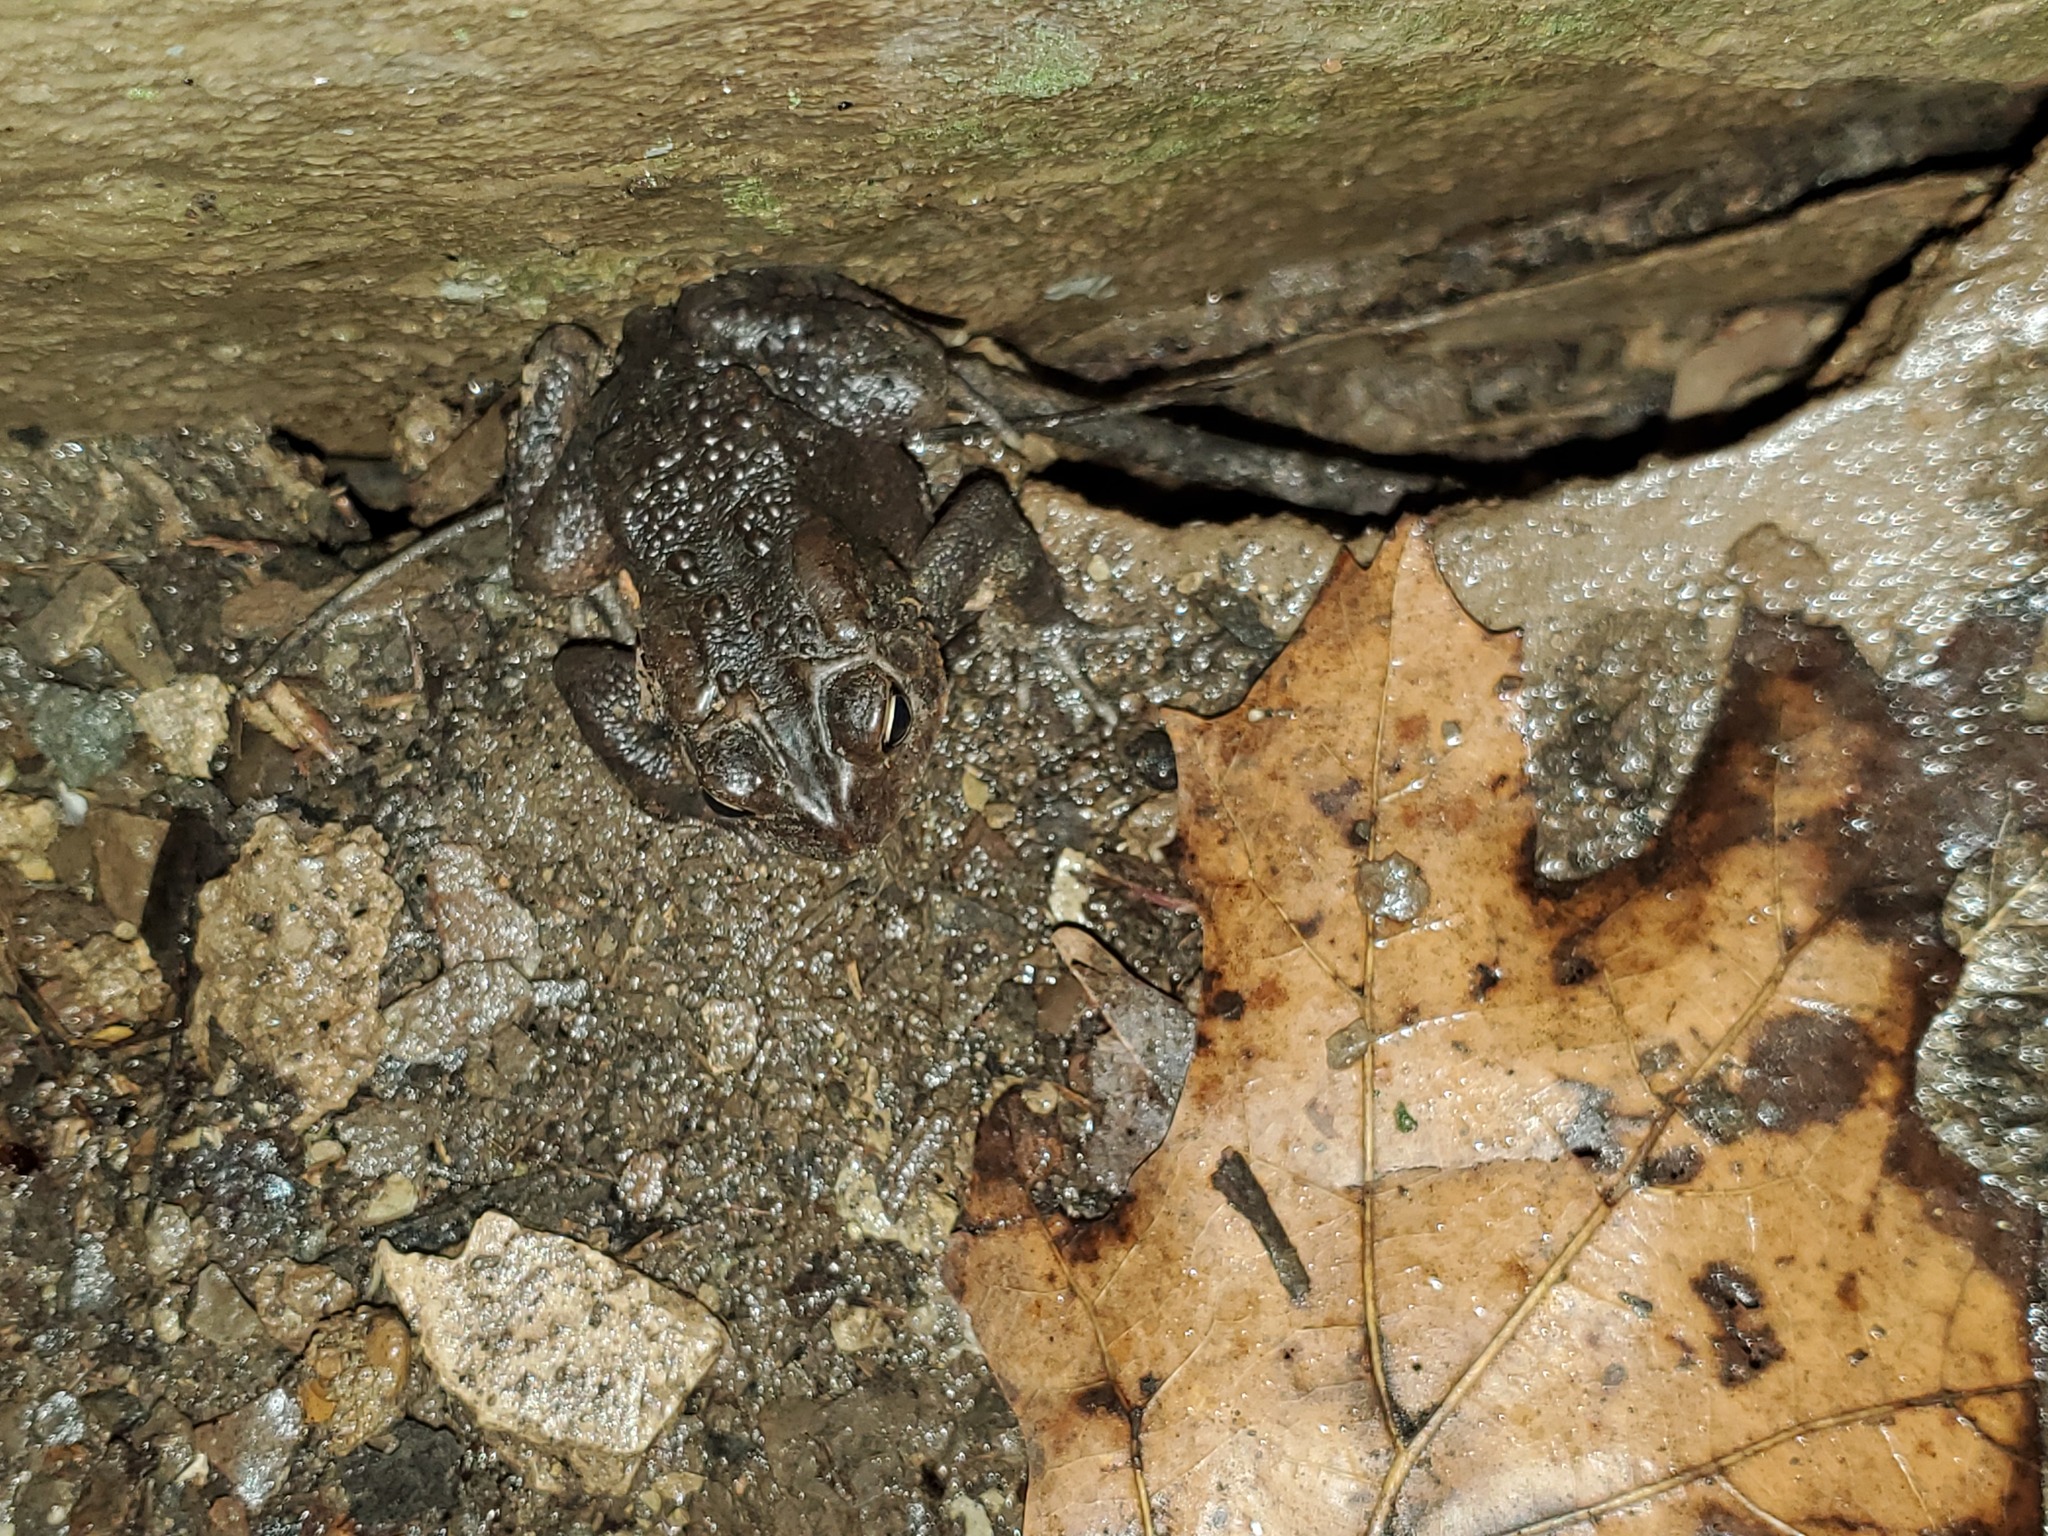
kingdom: Animalia
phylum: Chordata
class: Amphibia
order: Anura
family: Bufonidae
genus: Anaxyrus
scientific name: Anaxyrus americanus
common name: American toad
